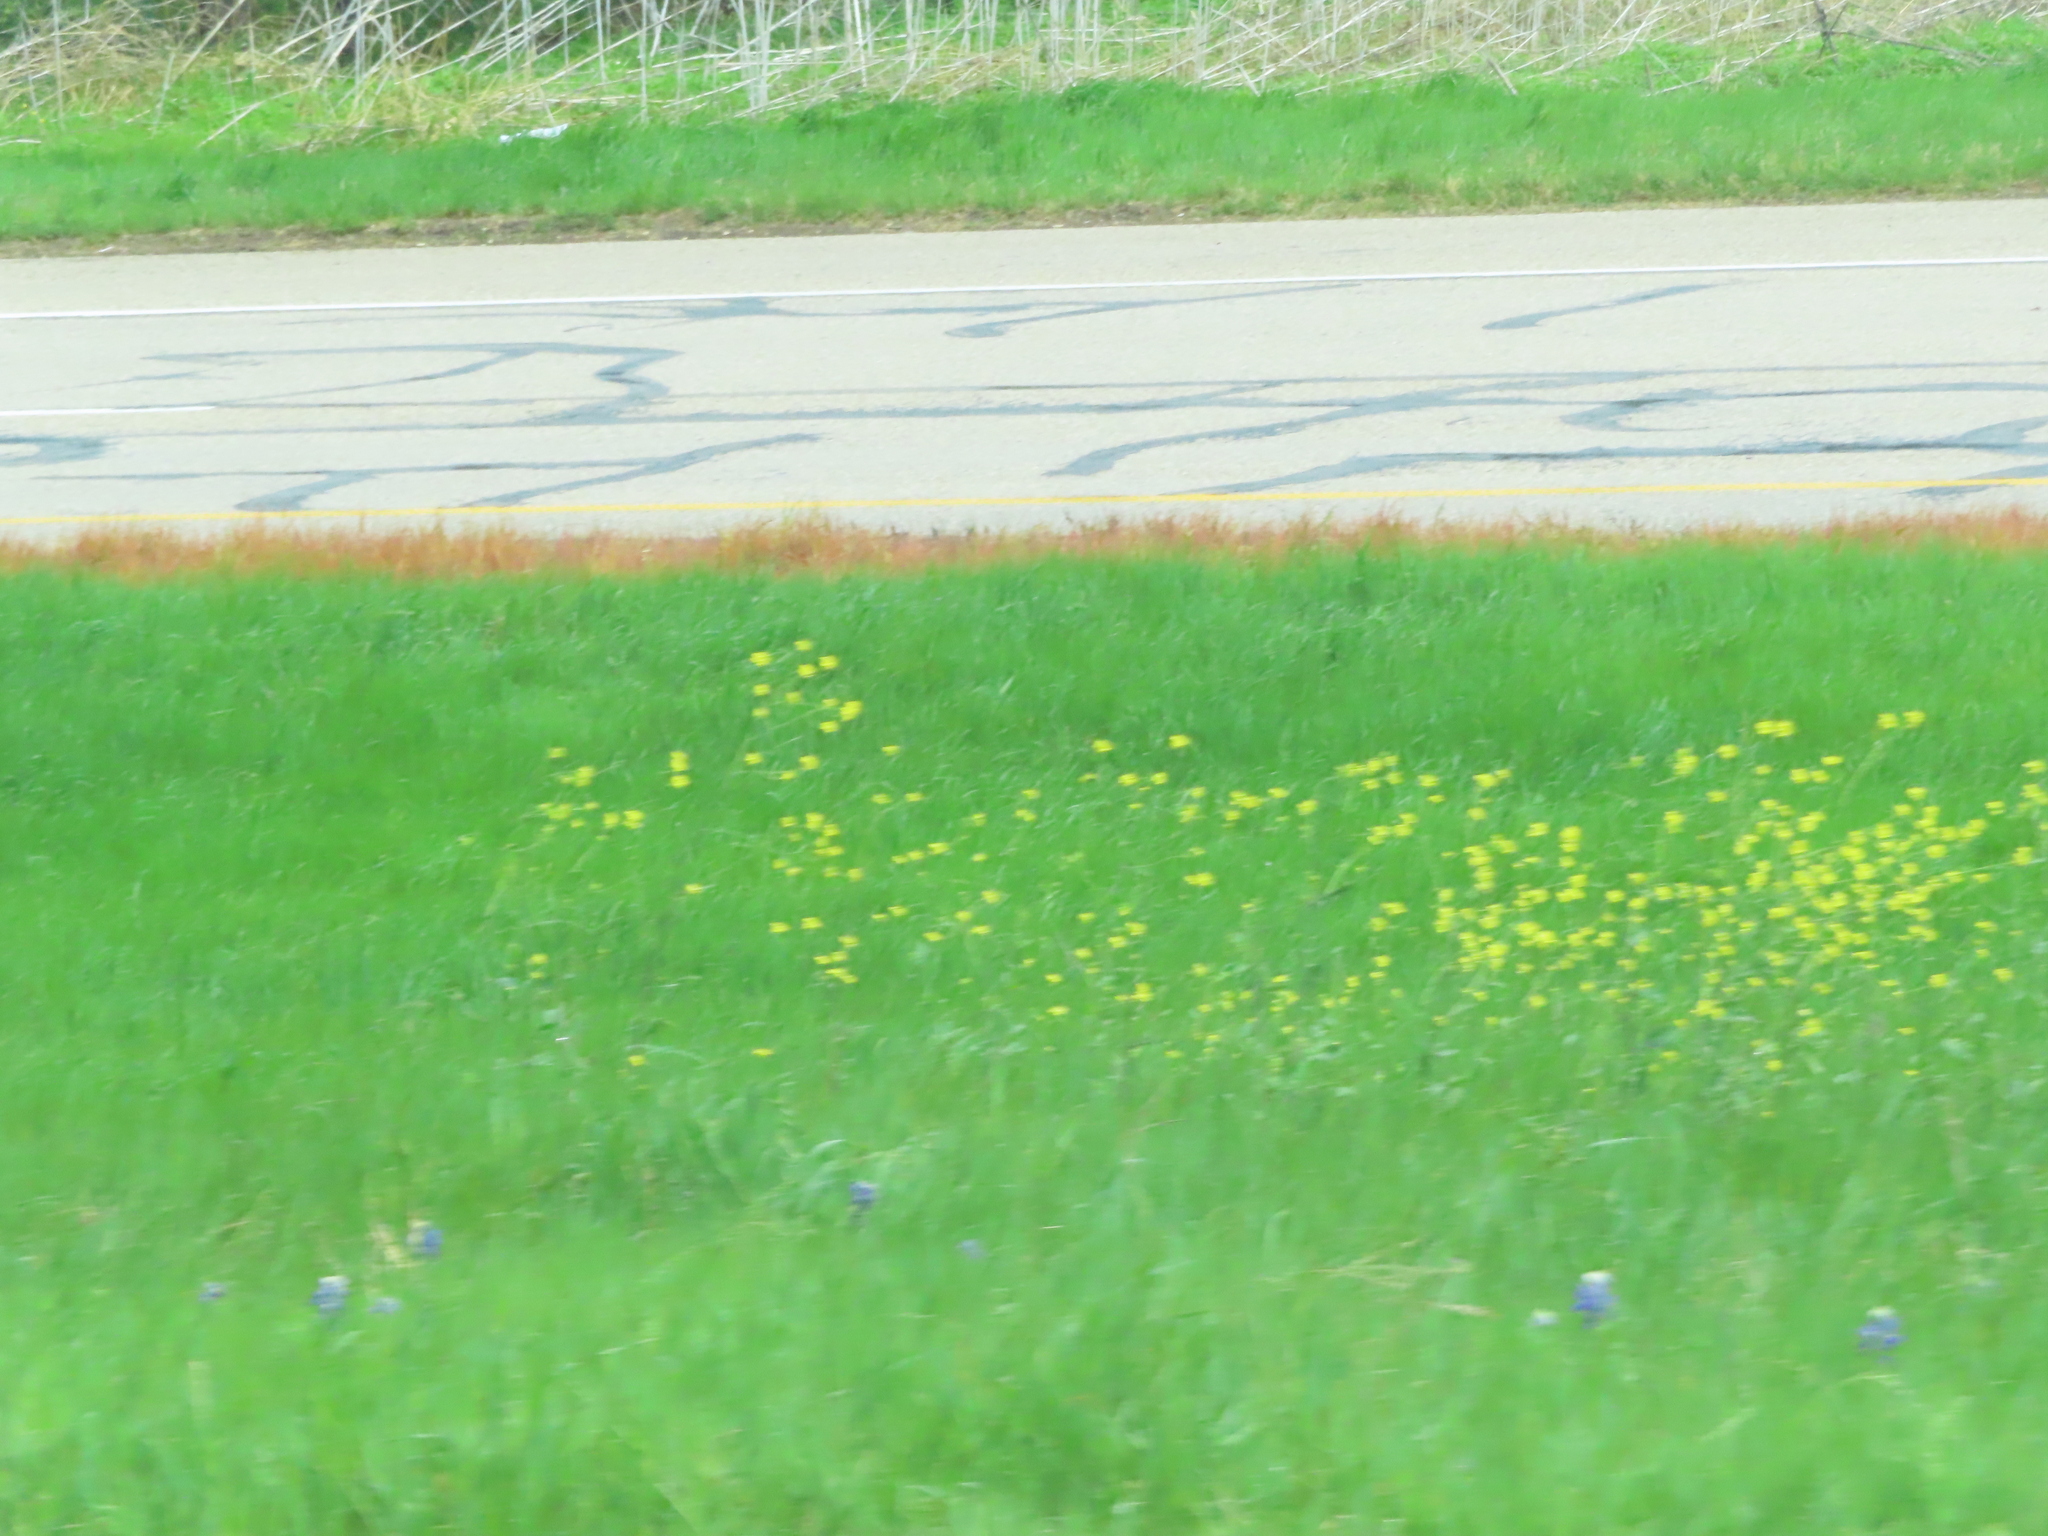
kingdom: Plantae
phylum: Tracheophyta
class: Magnoliopsida
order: Brassicales
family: Brassicaceae
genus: Rapistrum
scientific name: Rapistrum rugosum
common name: Annual bastardcabbage
